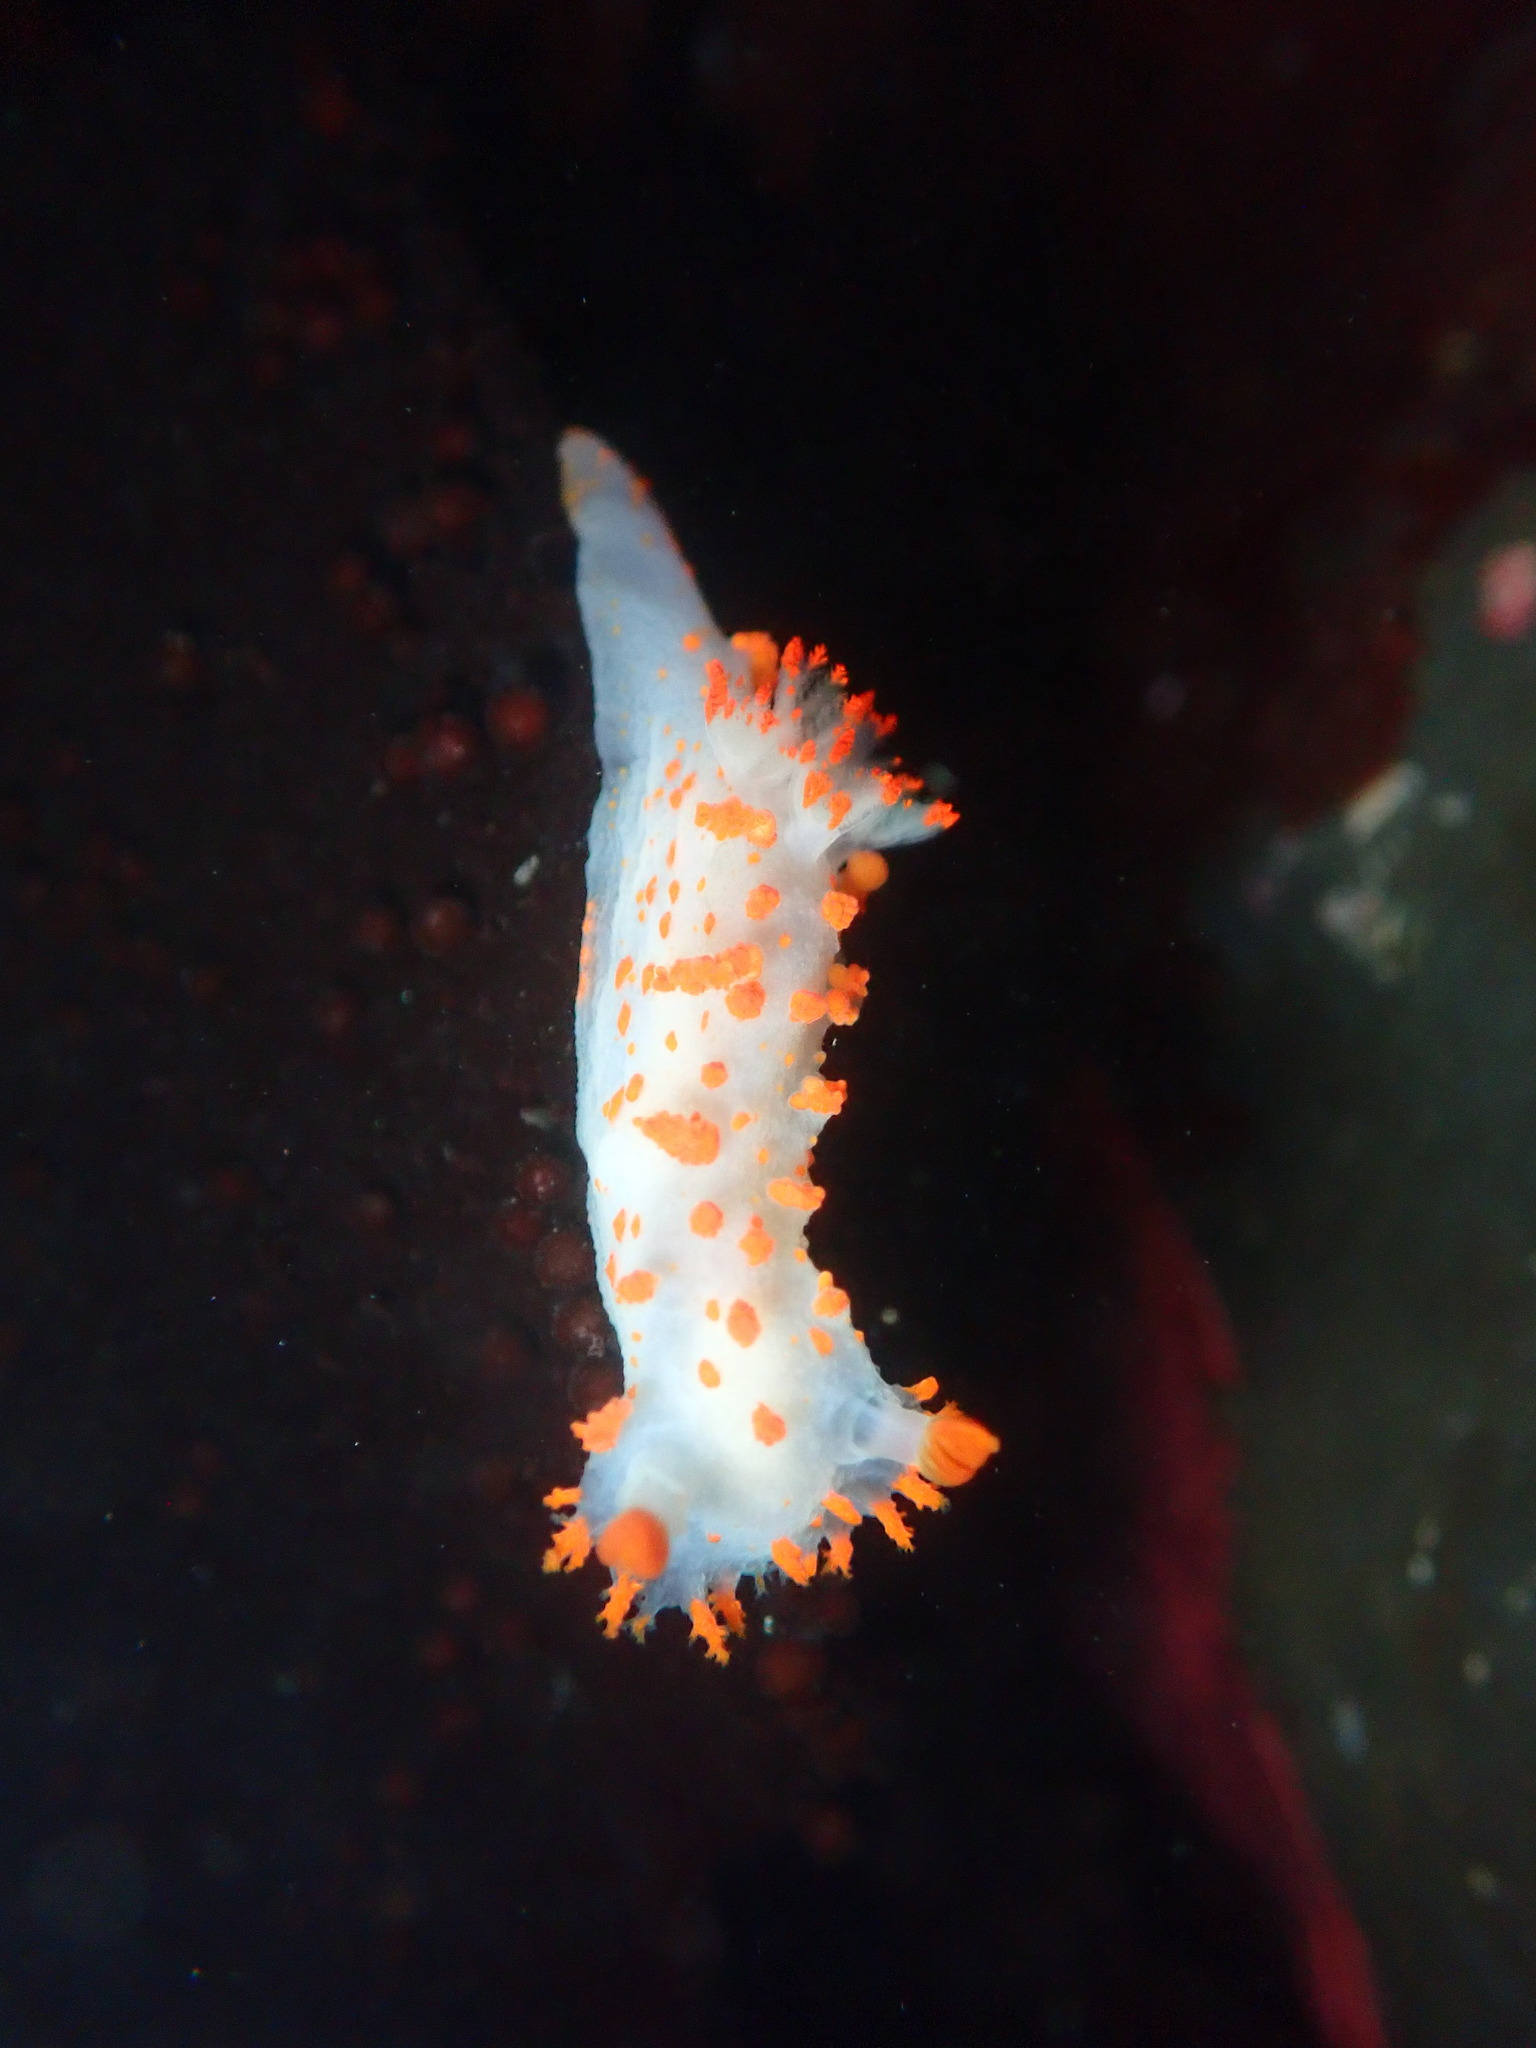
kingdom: Animalia
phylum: Mollusca
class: Gastropoda
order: Nudibranchia
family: Polyceridae
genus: Triopha
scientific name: Triopha catalinae
